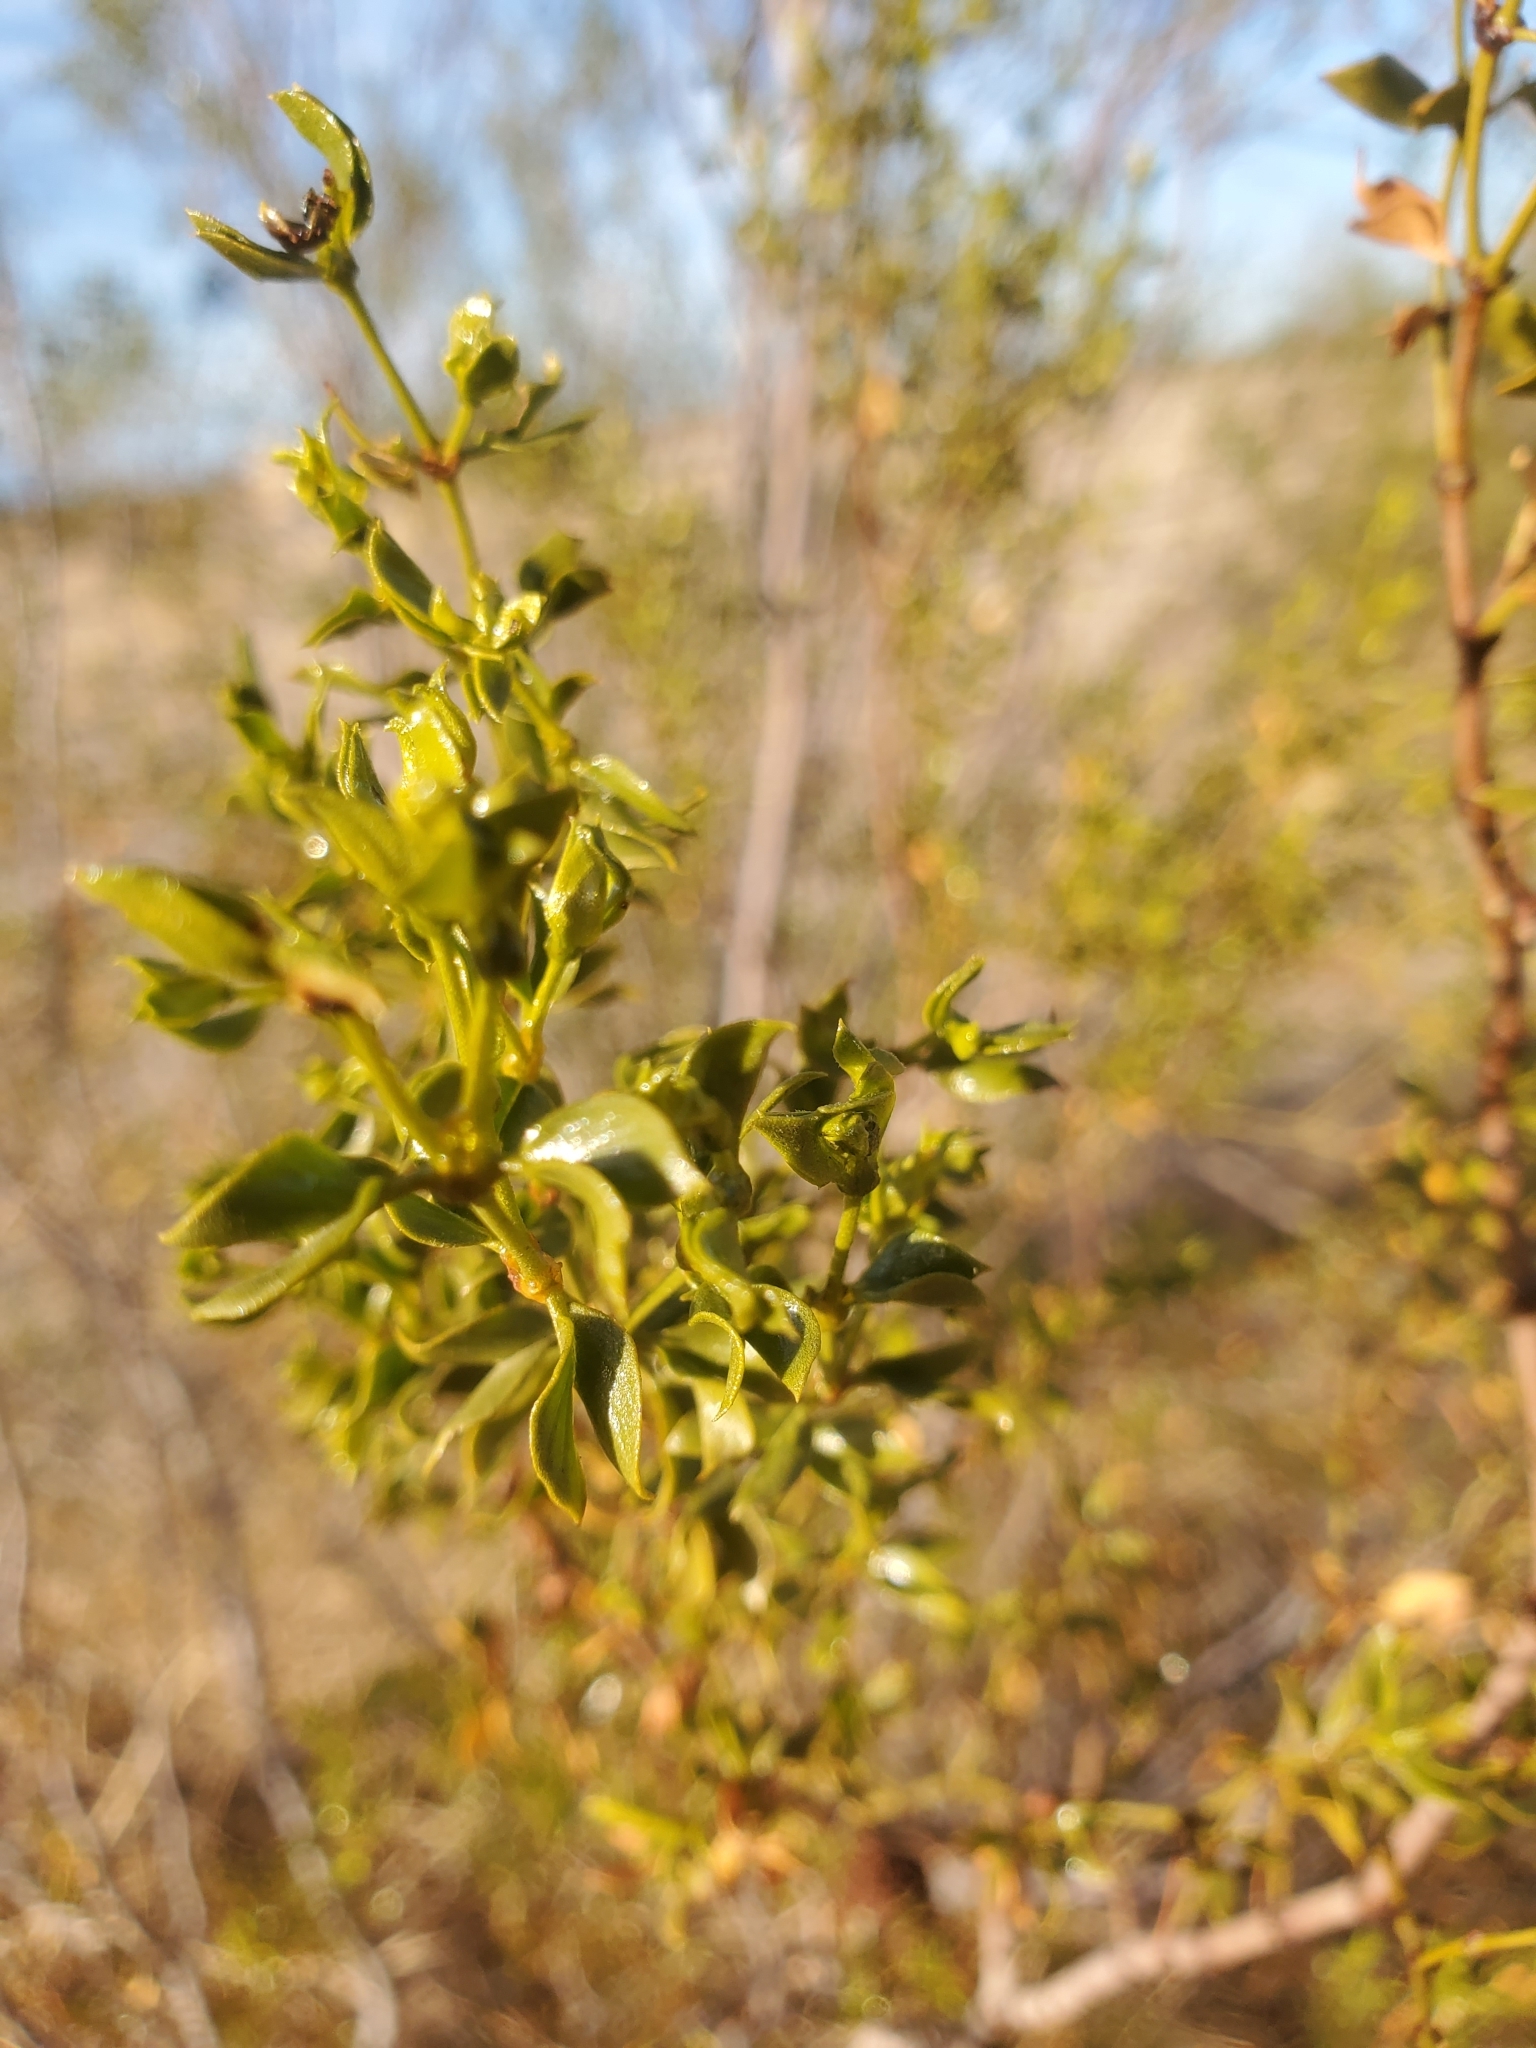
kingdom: Plantae
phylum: Tracheophyta
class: Magnoliopsida
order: Zygophyllales
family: Zygophyllaceae
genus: Larrea
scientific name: Larrea tridentata
